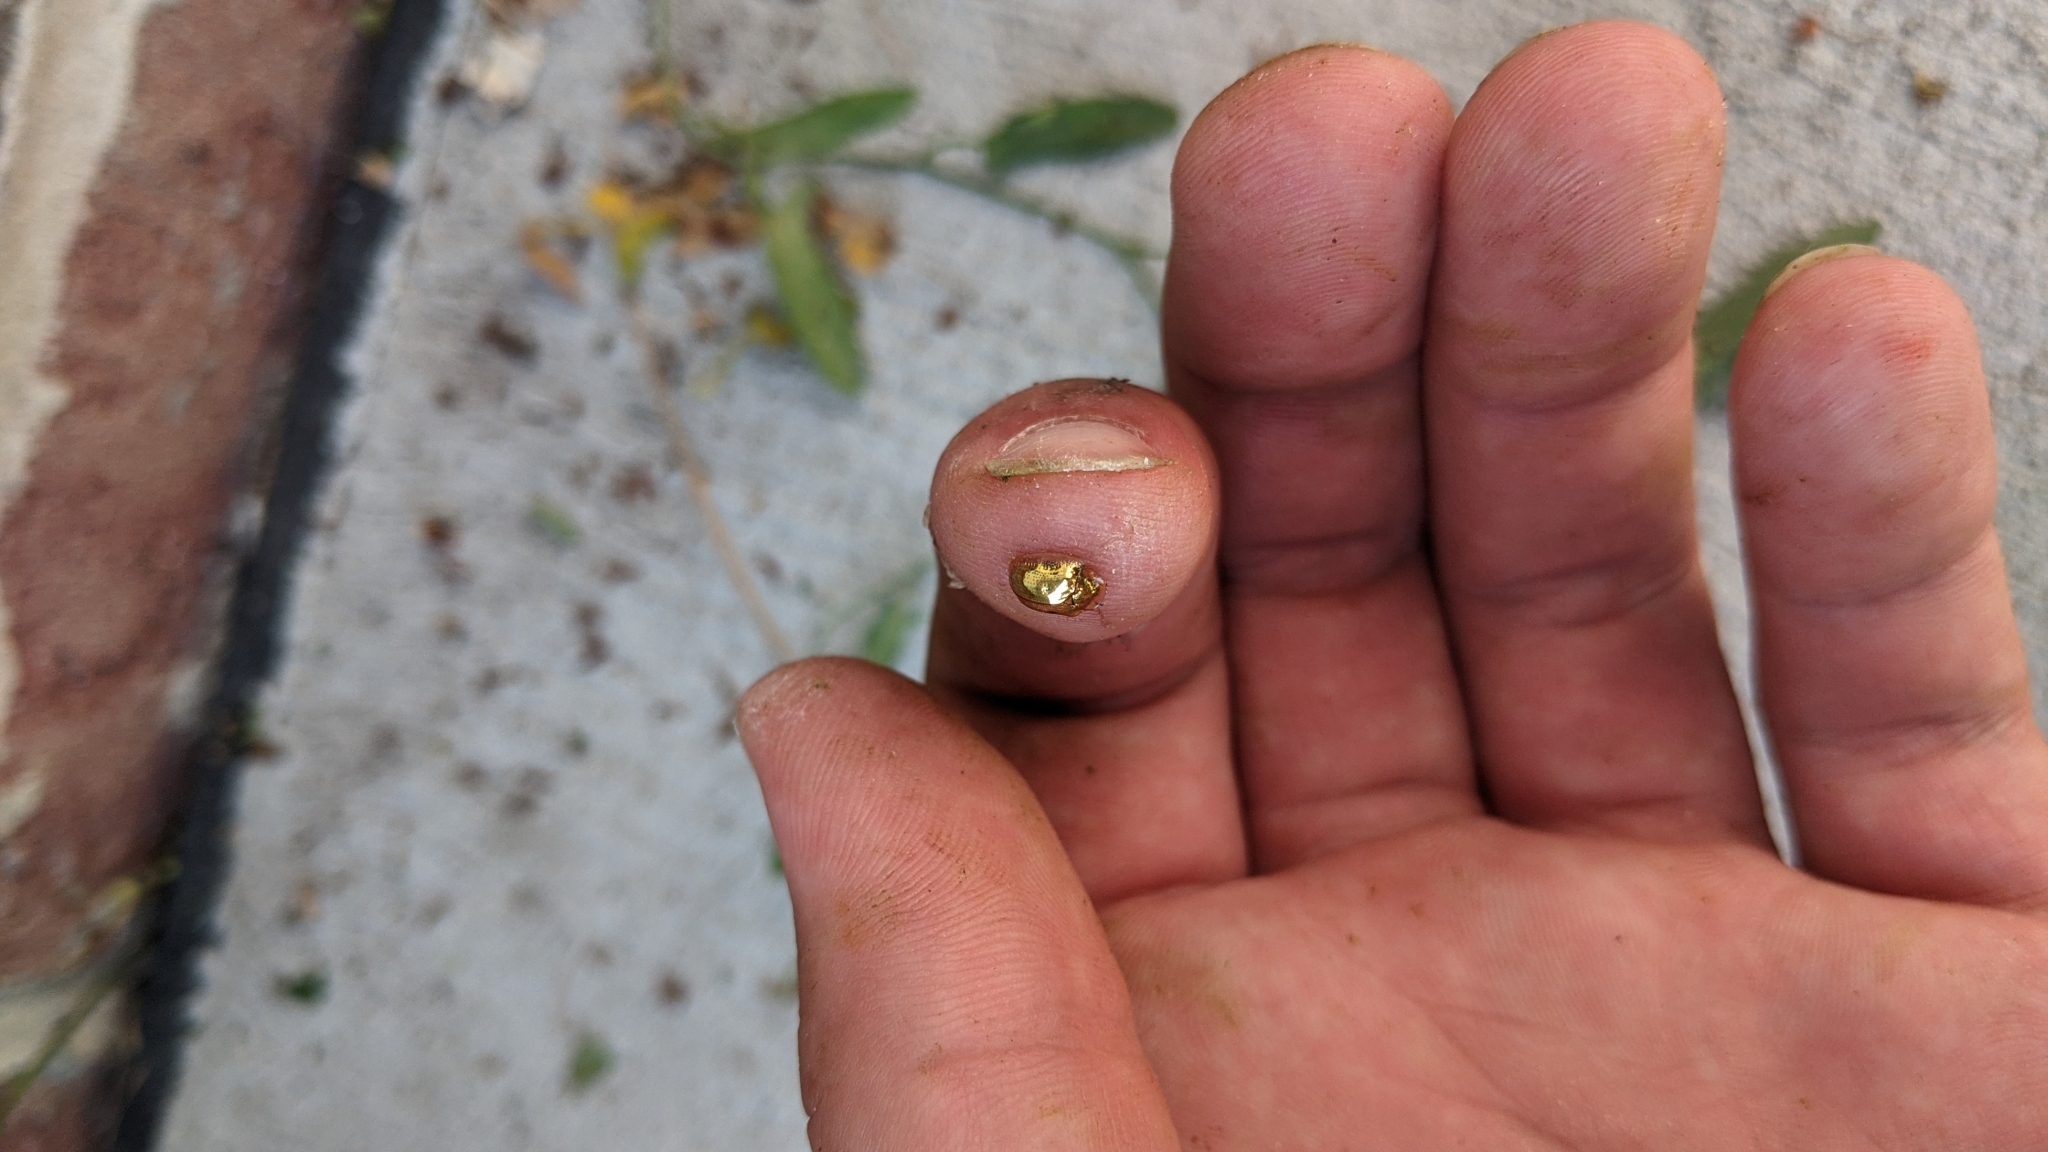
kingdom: Animalia
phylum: Arthropoda
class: Insecta
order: Coleoptera
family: Chrysomelidae
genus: Charidotella
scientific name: Charidotella sexpunctata
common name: Golden tortoise beetle
